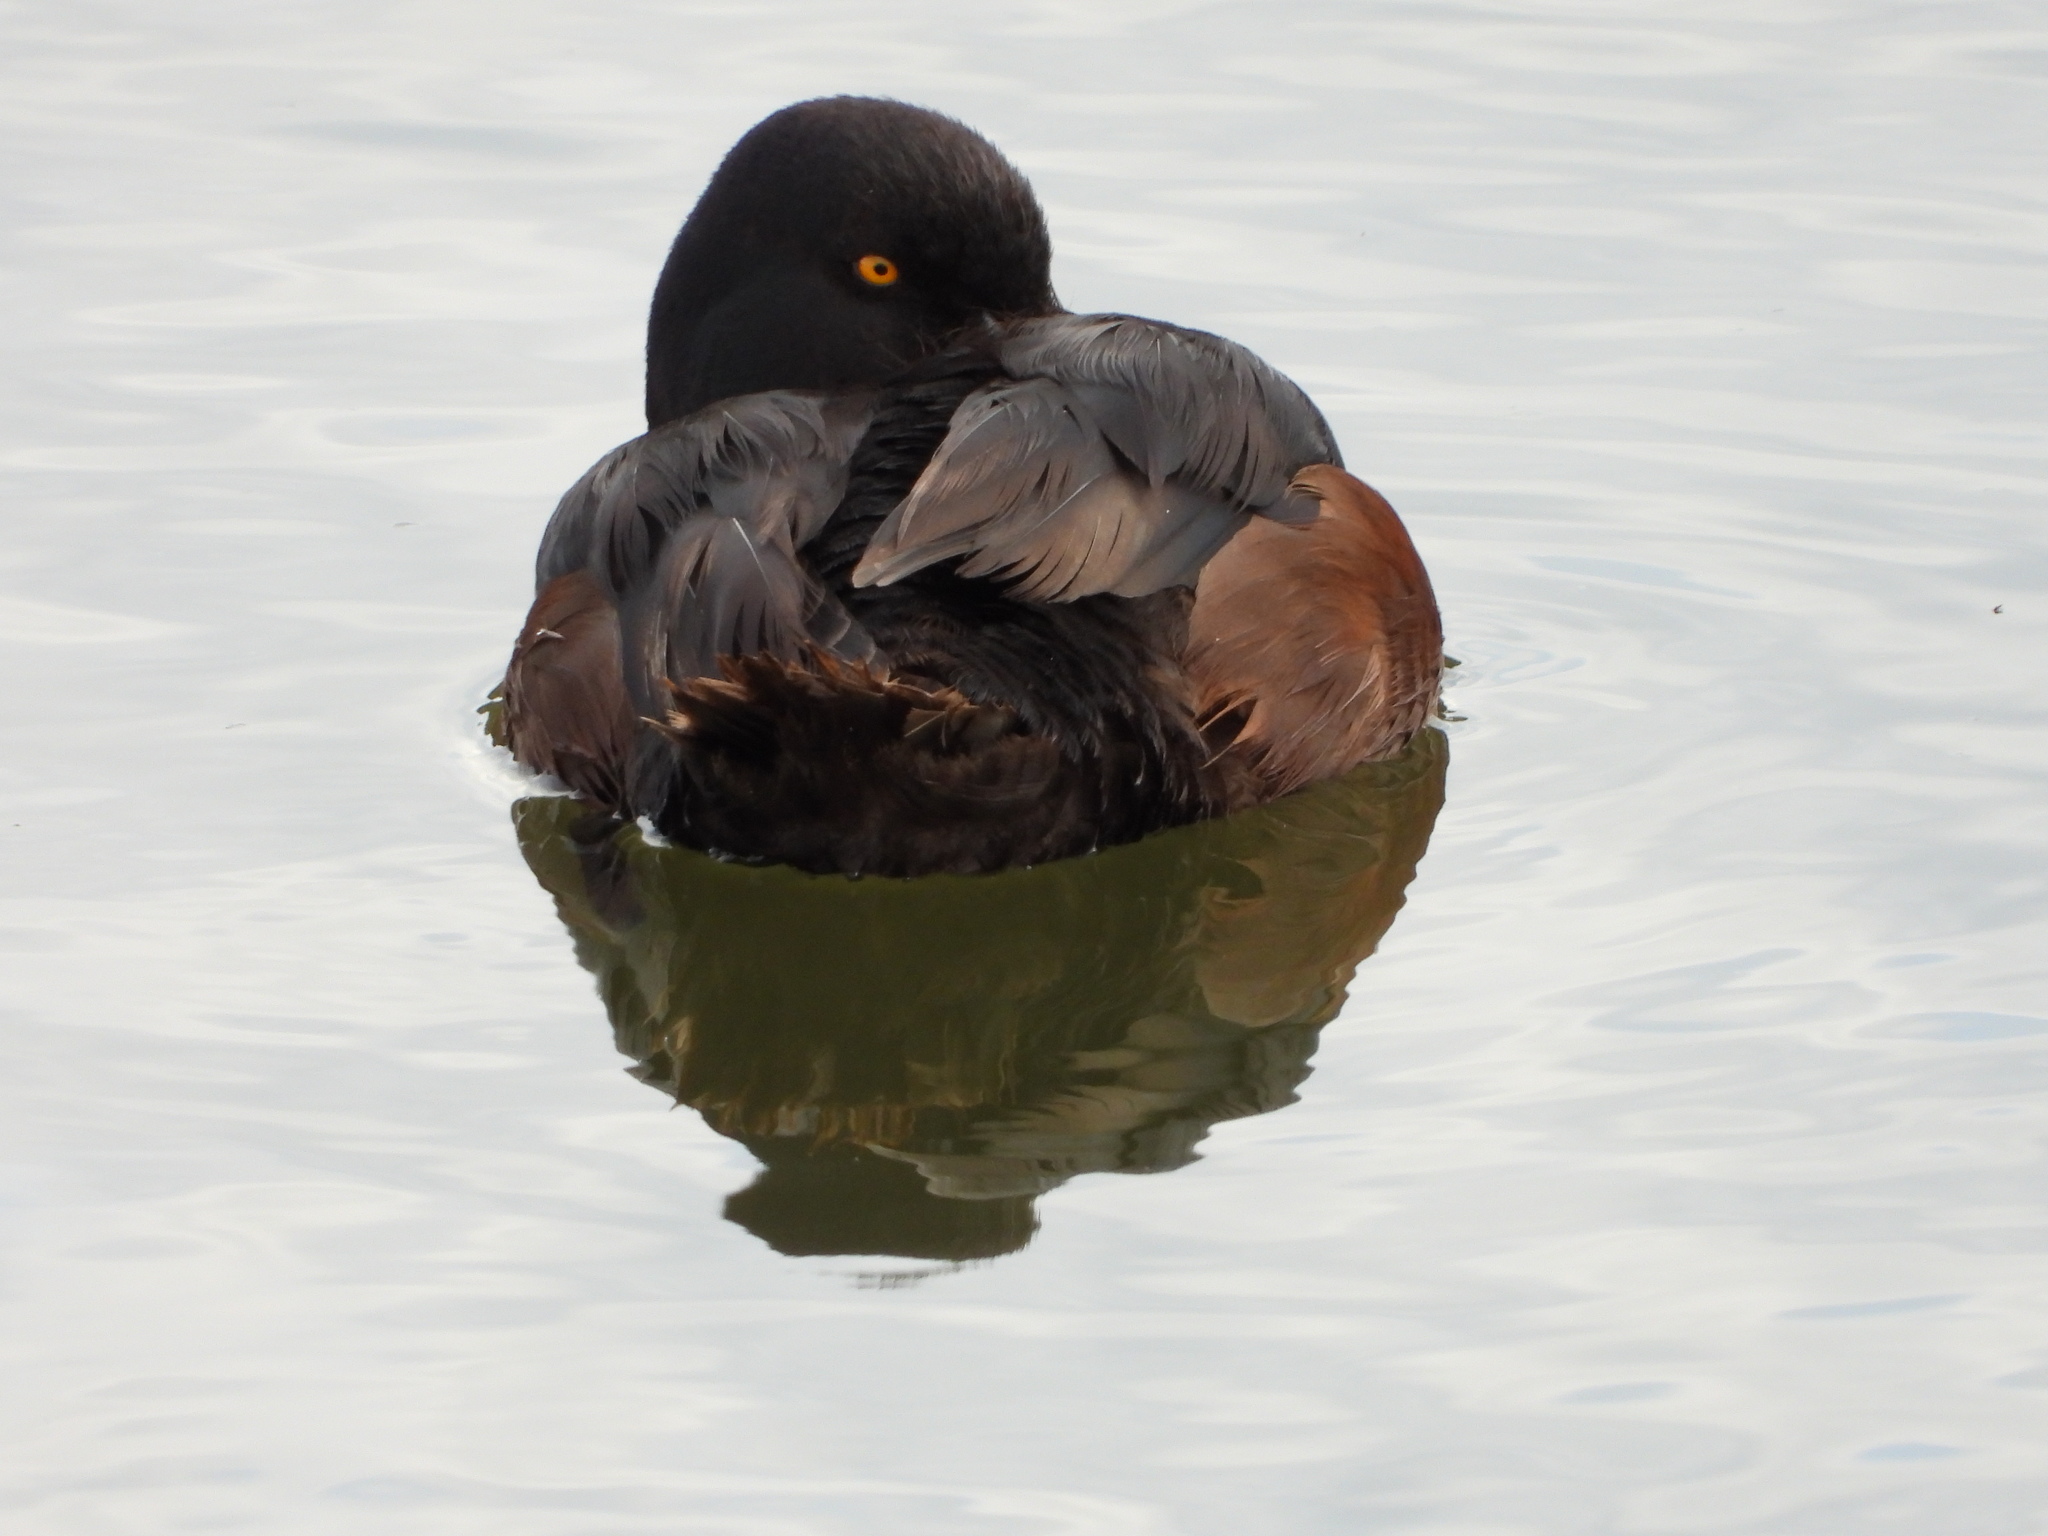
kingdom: Animalia
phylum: Chordata
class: Aves
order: Anseriformes
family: Anatidae
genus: Aythya
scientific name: Aythya novaeseelandiae
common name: New zealand scaup
